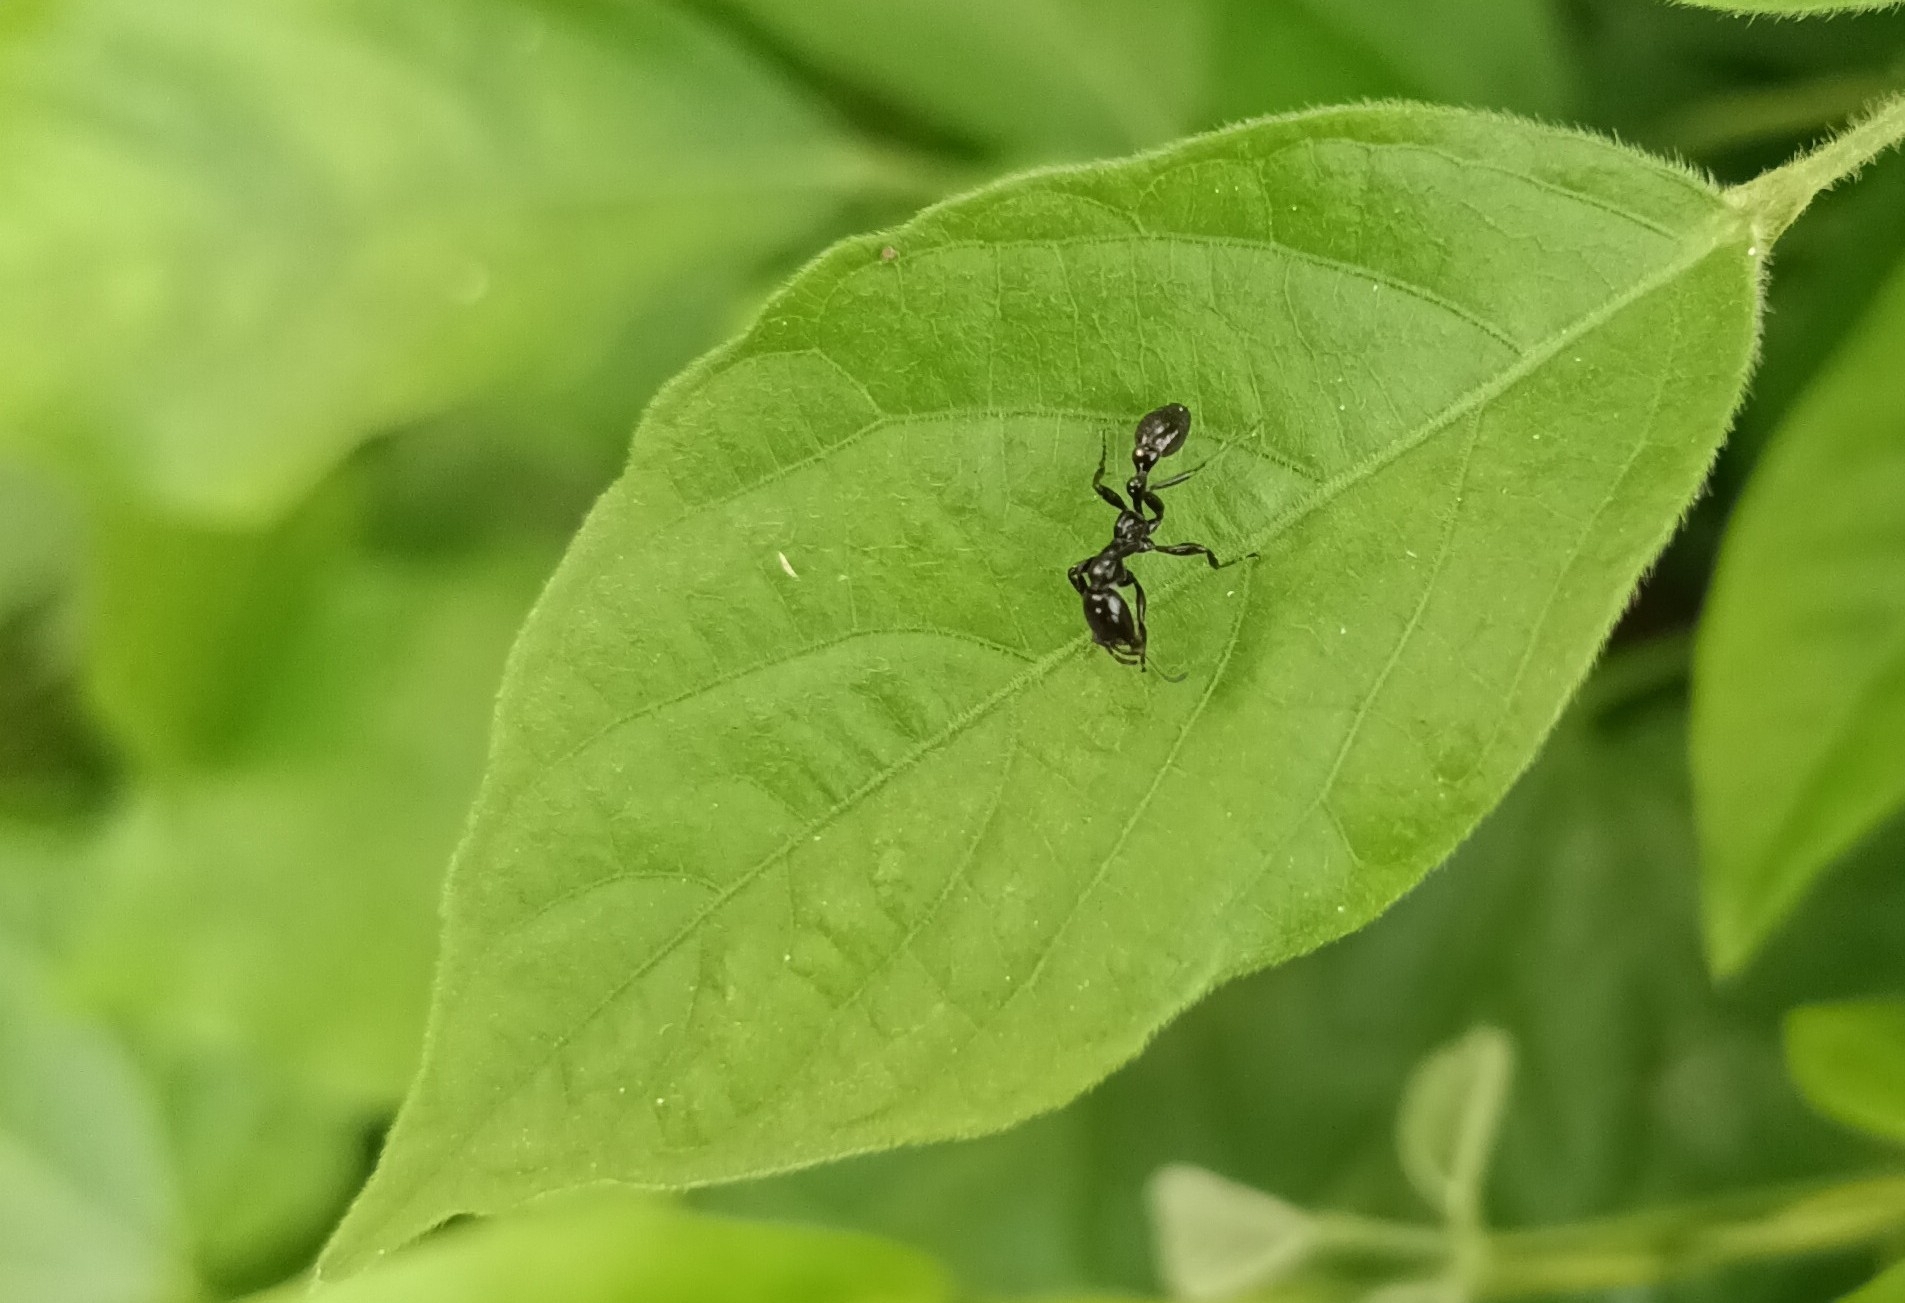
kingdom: Animalia
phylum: Arthropoda
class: Insecta
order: Hymenoptera
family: Formicidae
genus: Tetraponera
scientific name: Tetraponera nigra
